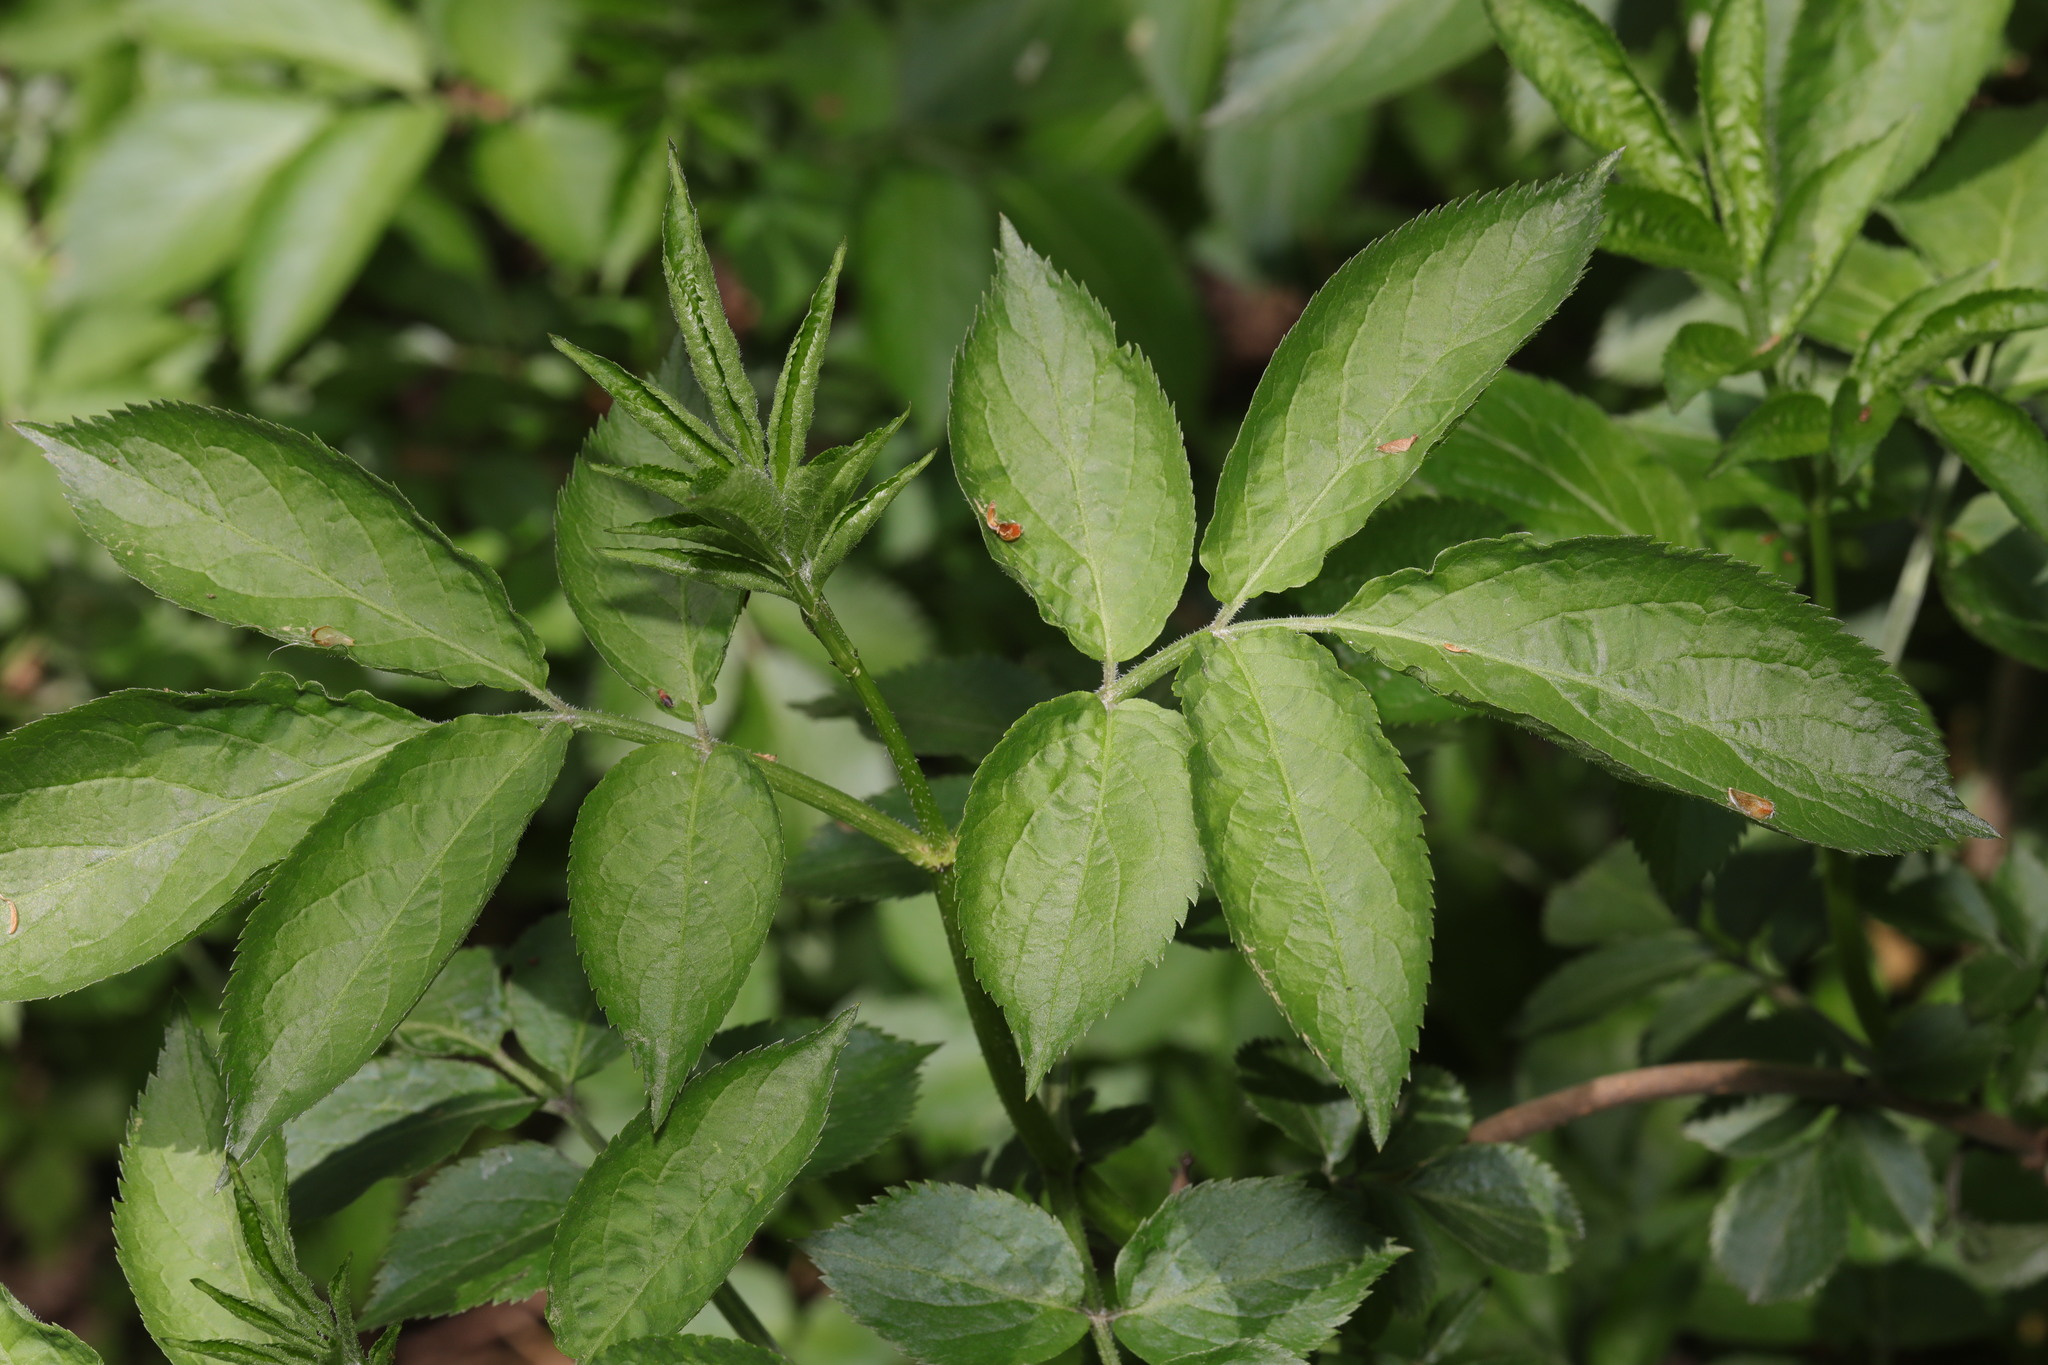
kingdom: Plantae
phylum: Tracheophyta
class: Magnoliopsida
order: Dipsacales
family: Viburnaceae
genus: Sambucus
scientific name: Sambucus nigra
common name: Elder
